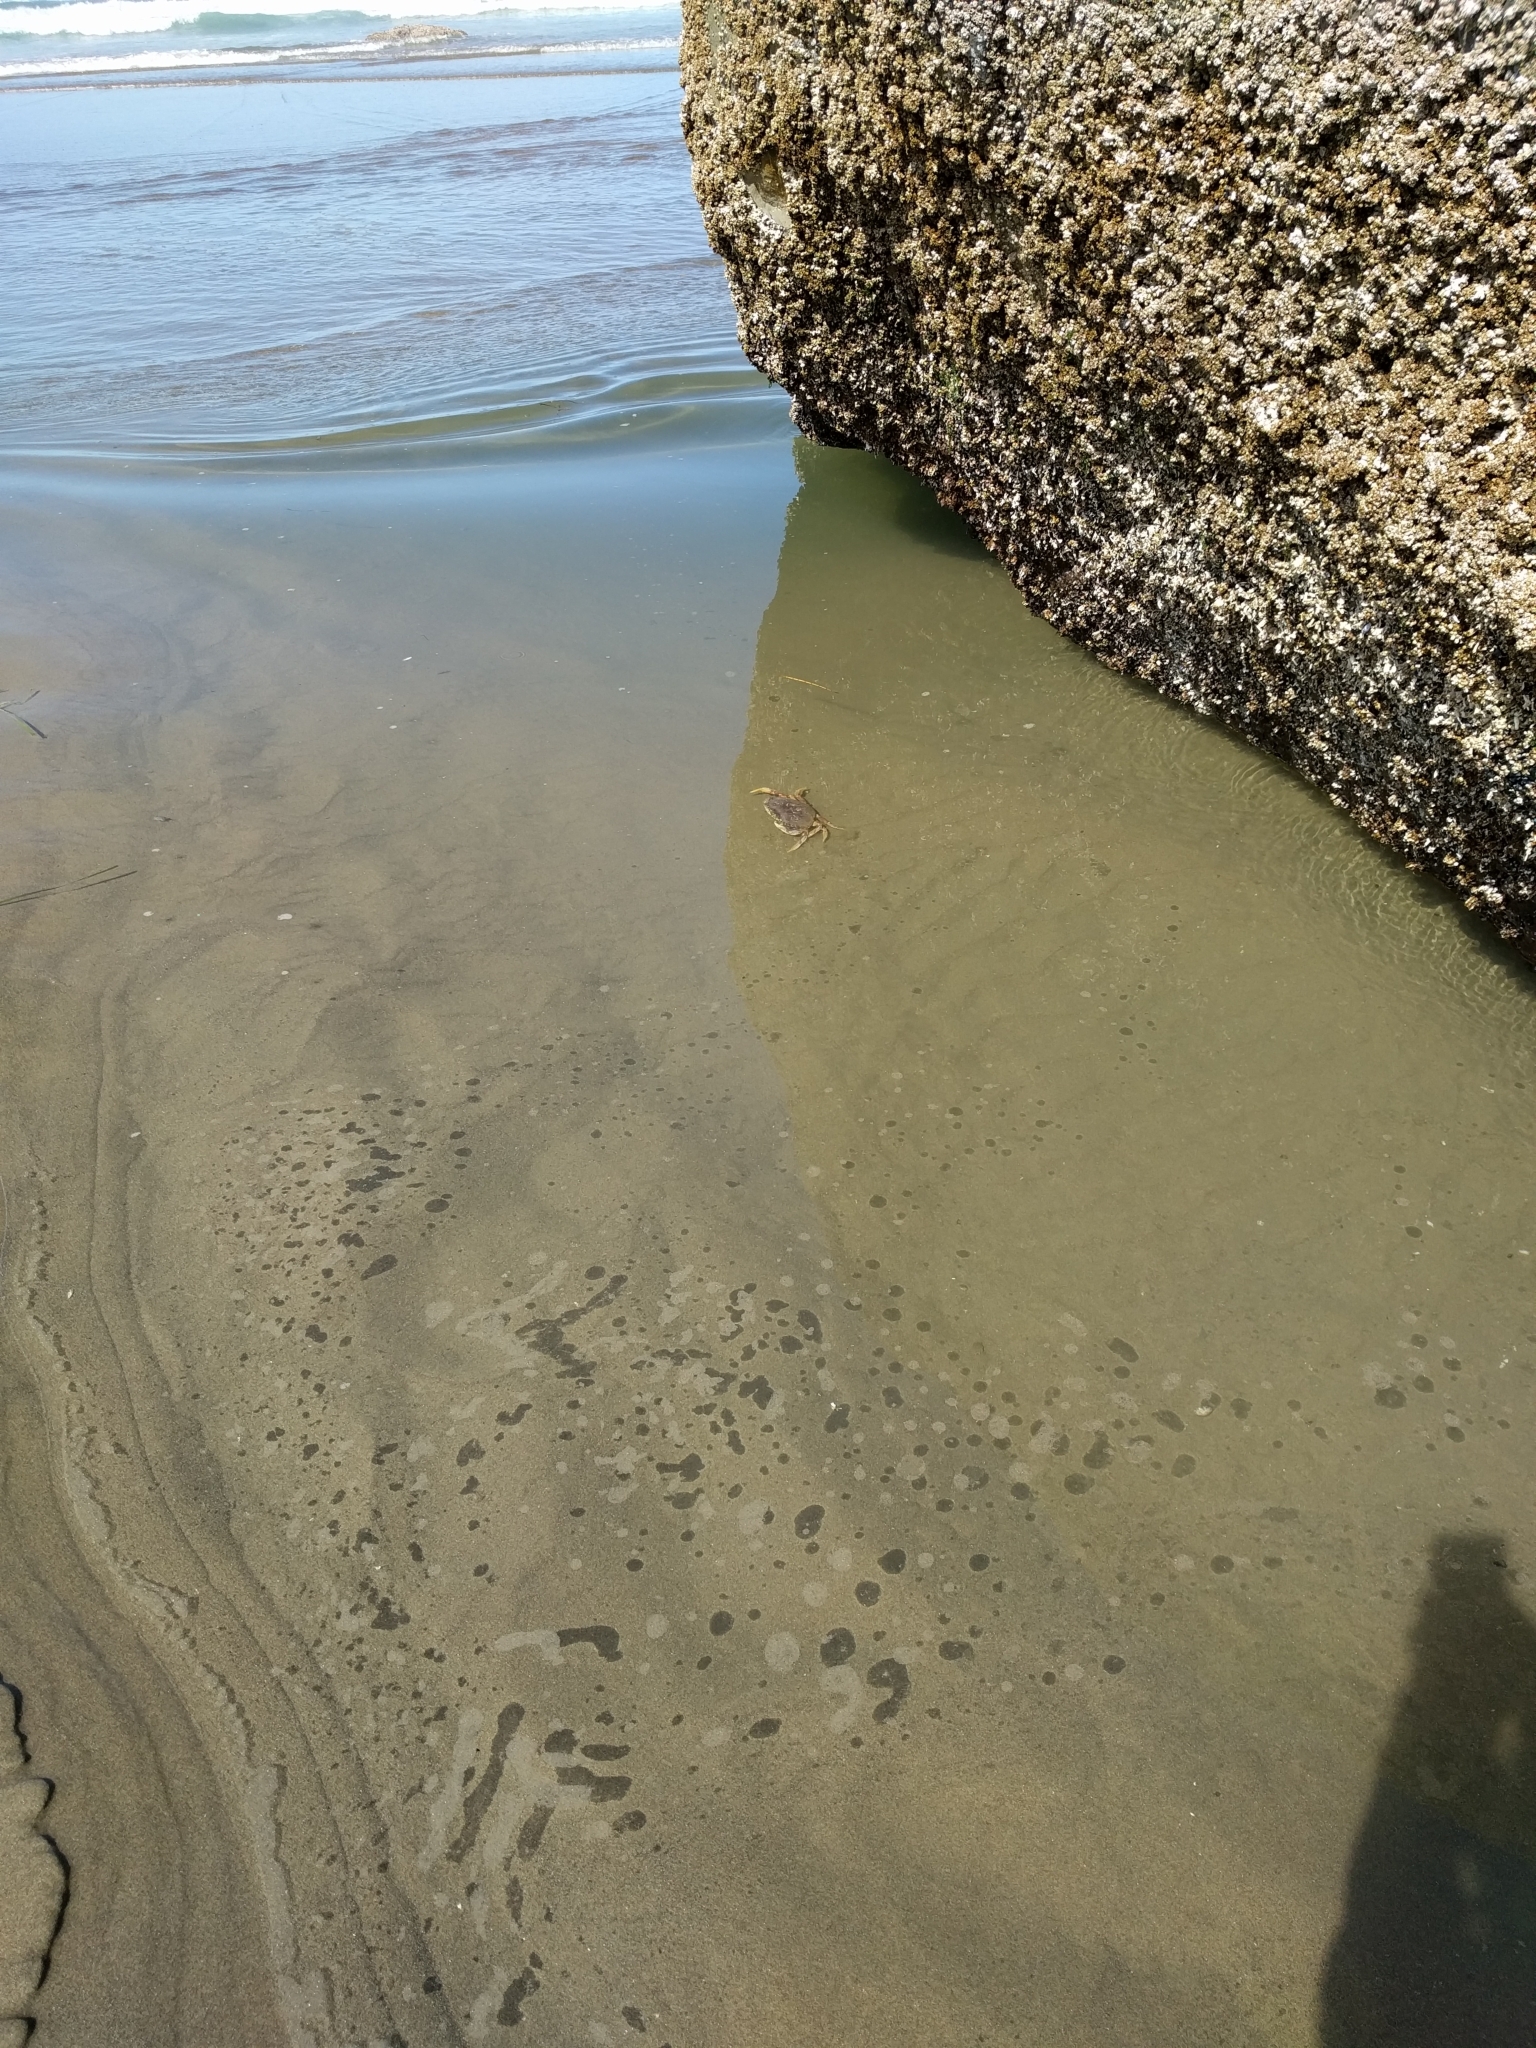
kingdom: Animalia
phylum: Arthropoda
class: Malacostraca
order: Decapoda
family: Cancridae
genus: Metacarcinus
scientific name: Metacarcinus magister
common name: Californian crab
